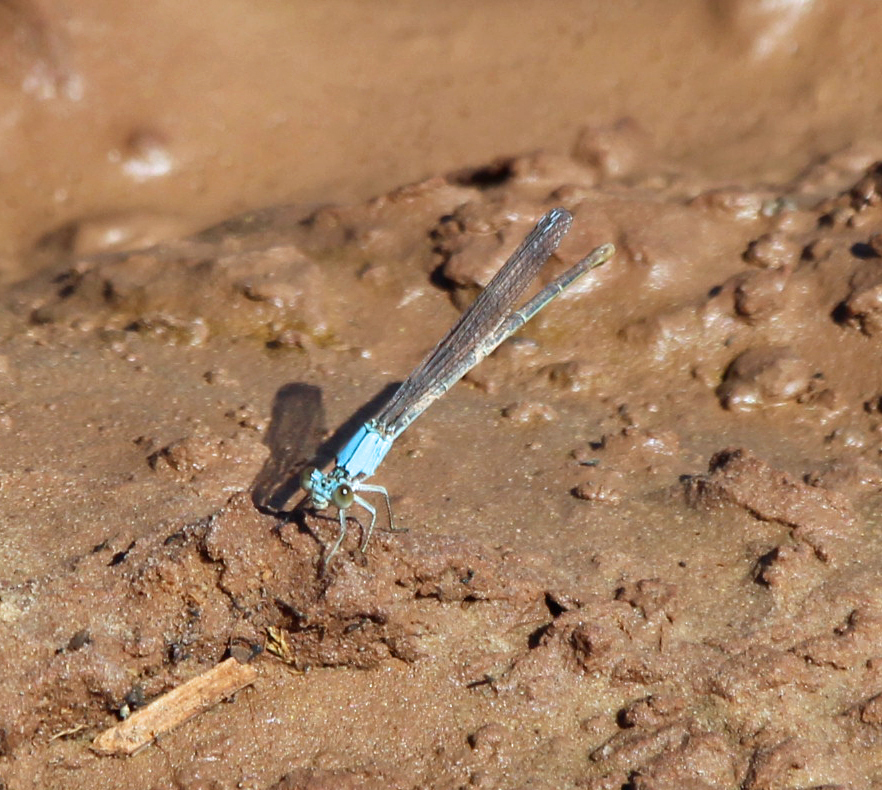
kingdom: Animalia
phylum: Arthropoda
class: Insecta
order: Odonata
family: Coenagrionidae
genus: Argia
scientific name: Argia moesta
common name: Powdered dancer
